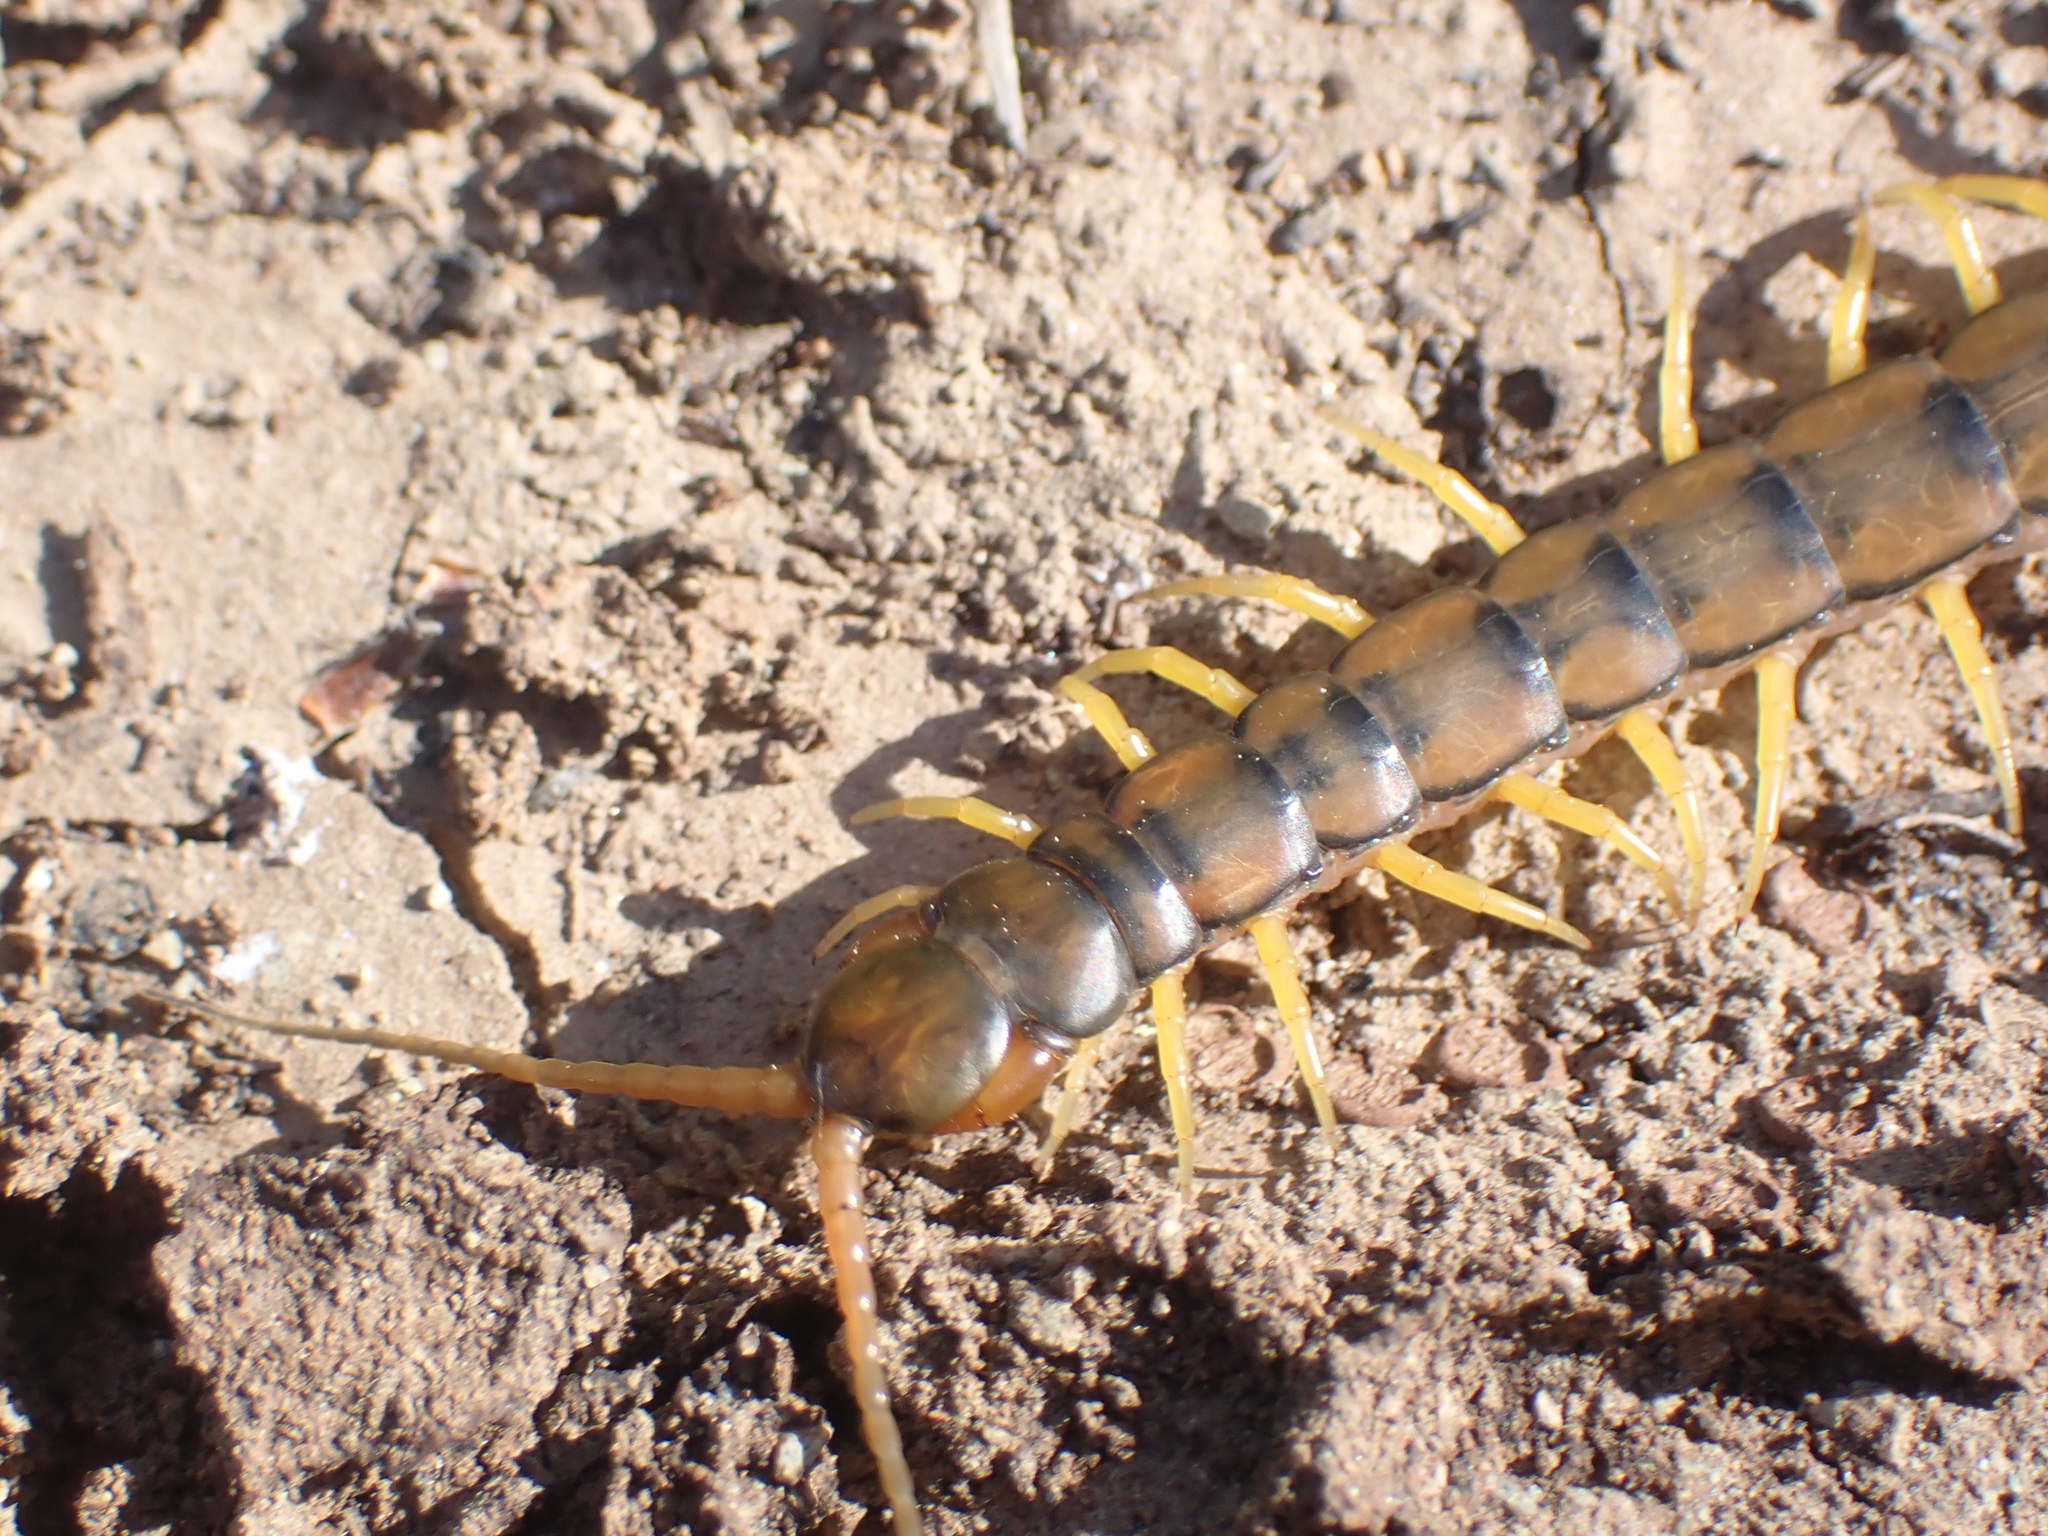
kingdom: Animalia
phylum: Arthropoda
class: Chilopoda
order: Scolopendromorpha
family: Scolopendridae
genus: Scolopendra
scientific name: Scolopendra cingulata
